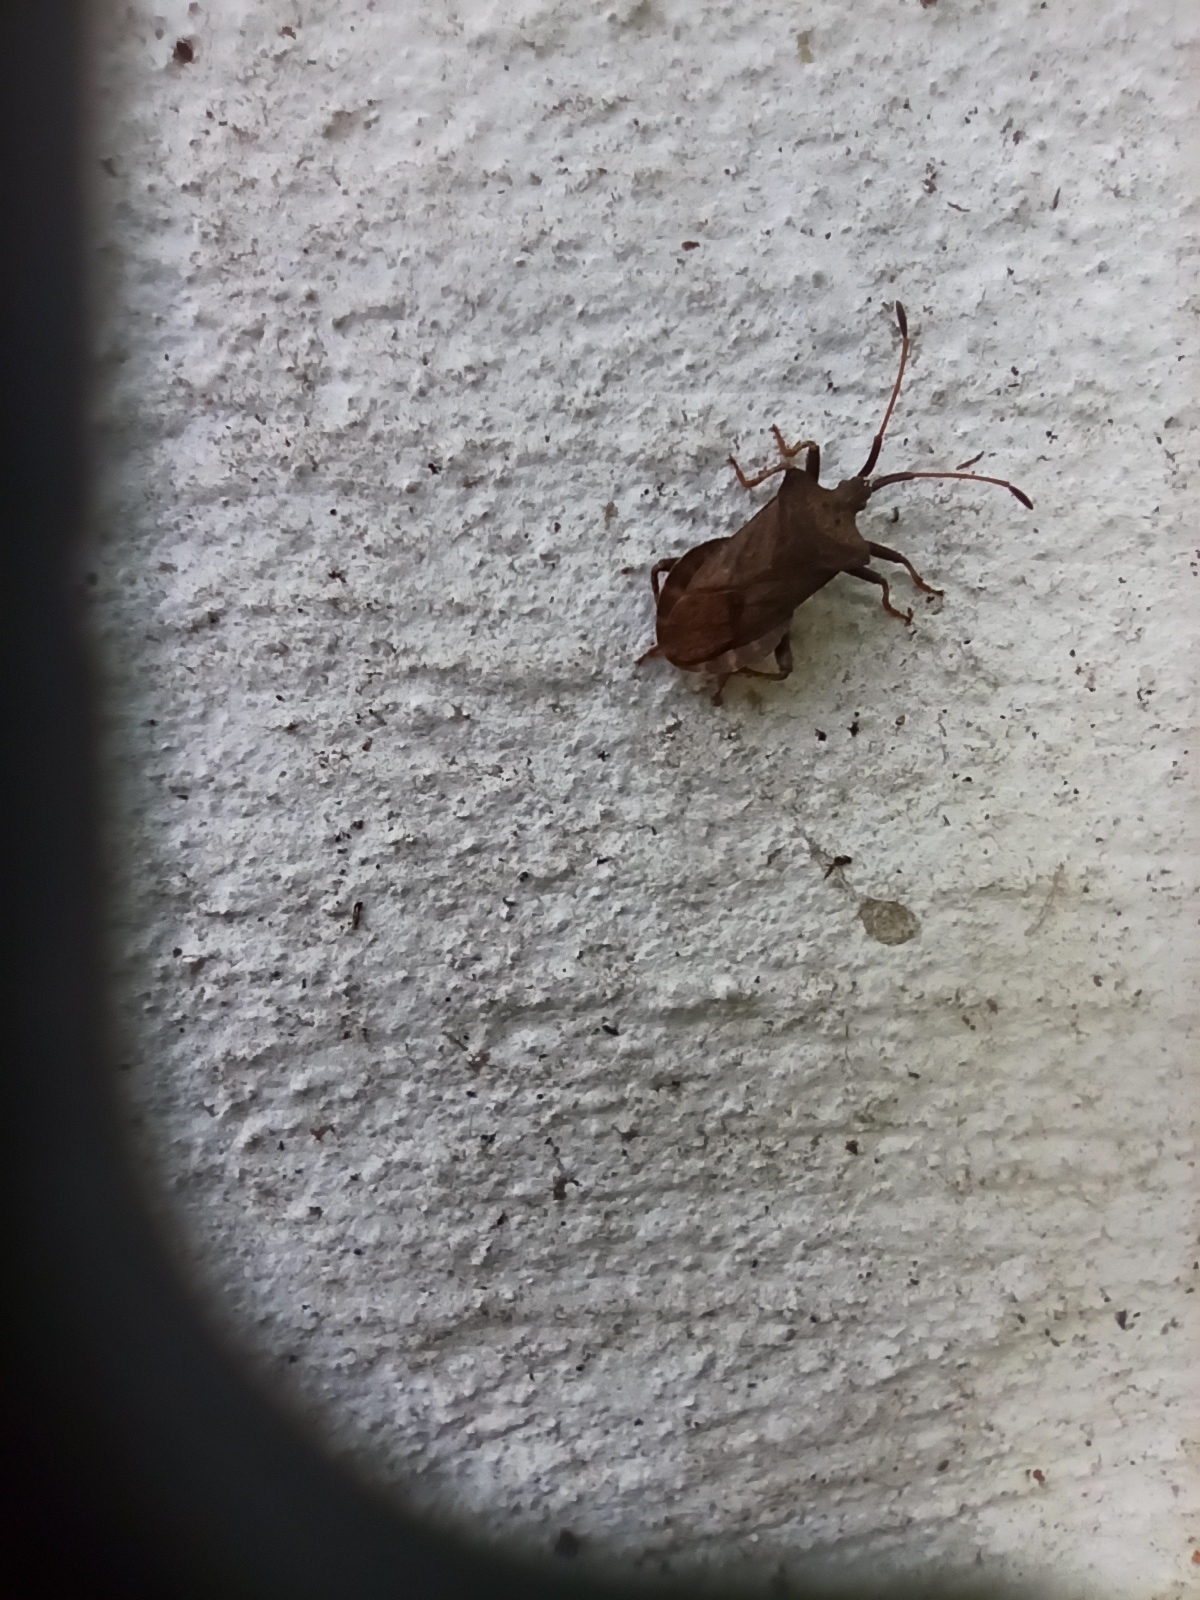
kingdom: Animalia
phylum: Arthropoda
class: Insecta
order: Hemiptera
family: Coreidae
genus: Coreus
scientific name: Coreus marginatus
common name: Dock bug
